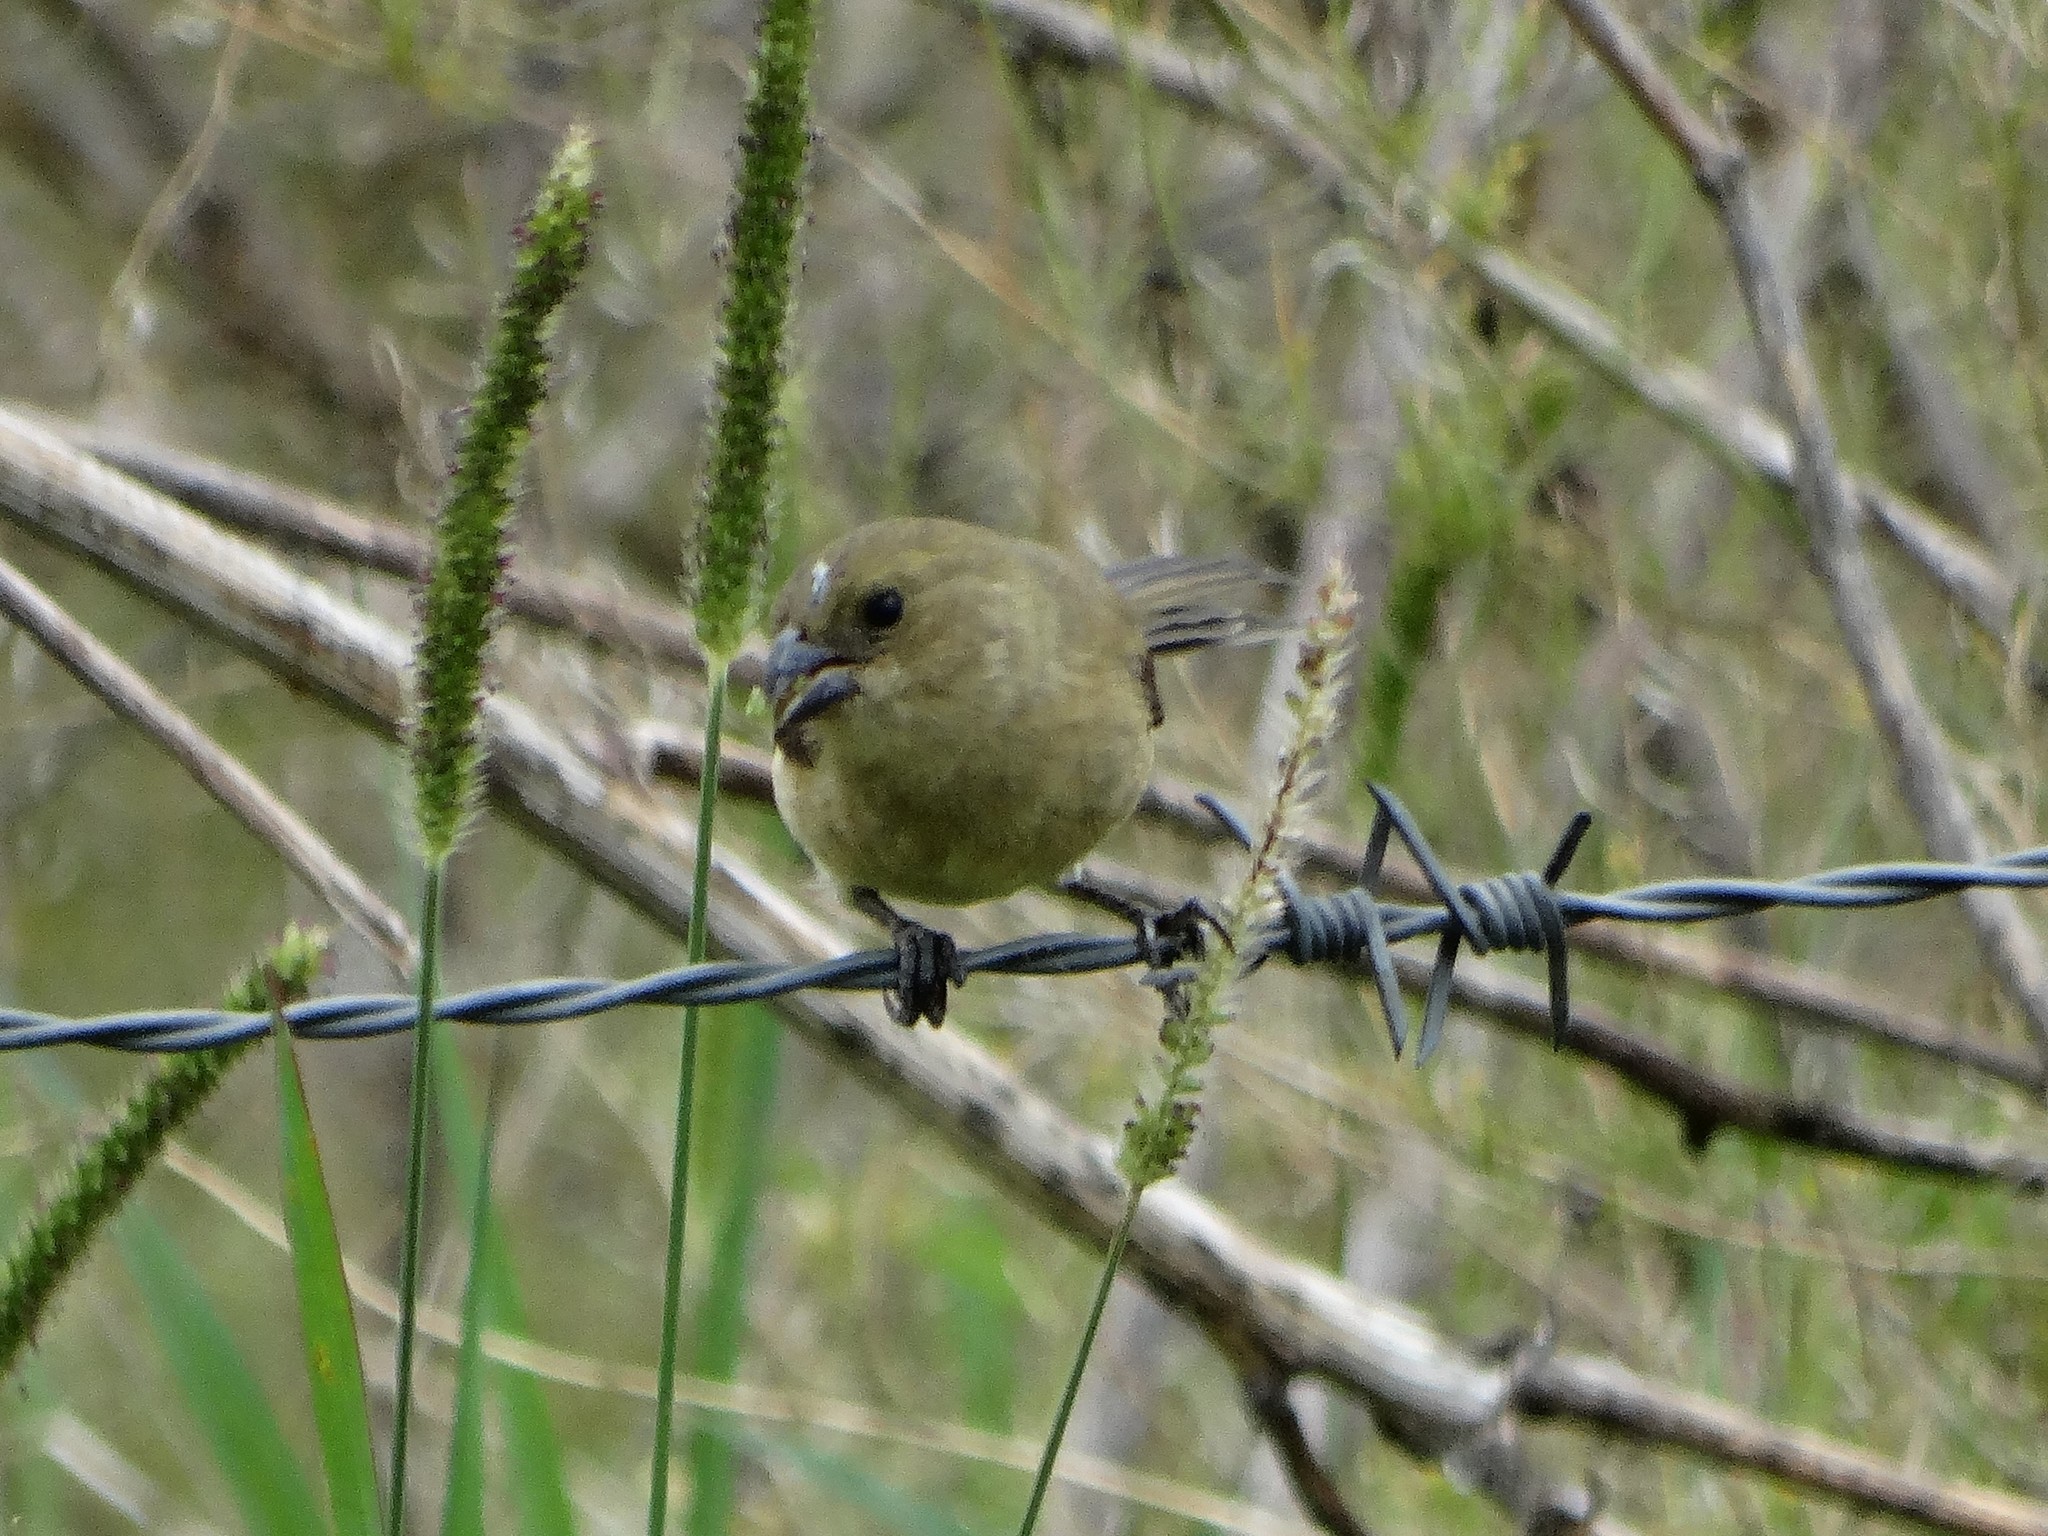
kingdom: Animalia
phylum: Chordata
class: Aves
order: Passeriformes
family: Thraupidae
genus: Sporophila
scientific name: Sporophila torqueola
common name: White-collared seedeater
